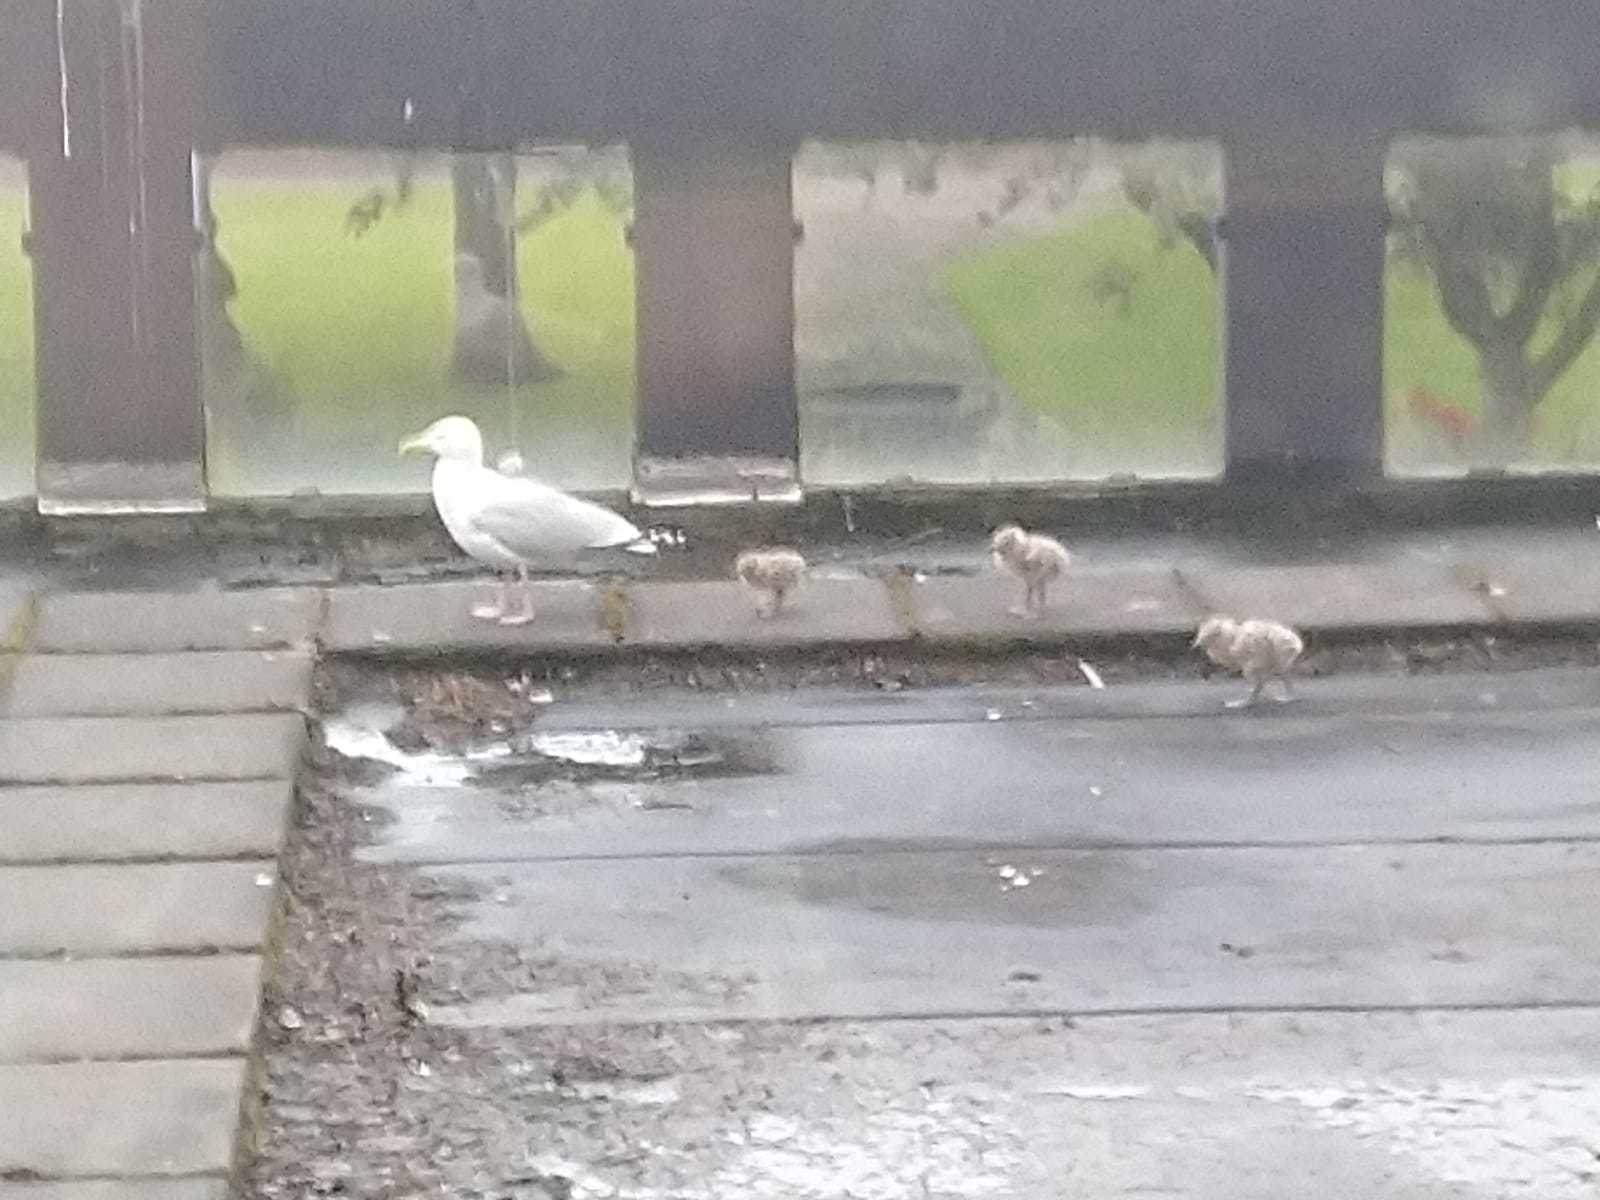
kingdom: Animalia
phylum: Chordata
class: Aves
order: Charadriiformes
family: Laridae
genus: Larus
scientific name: Larus argentatus
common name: Herring gull
